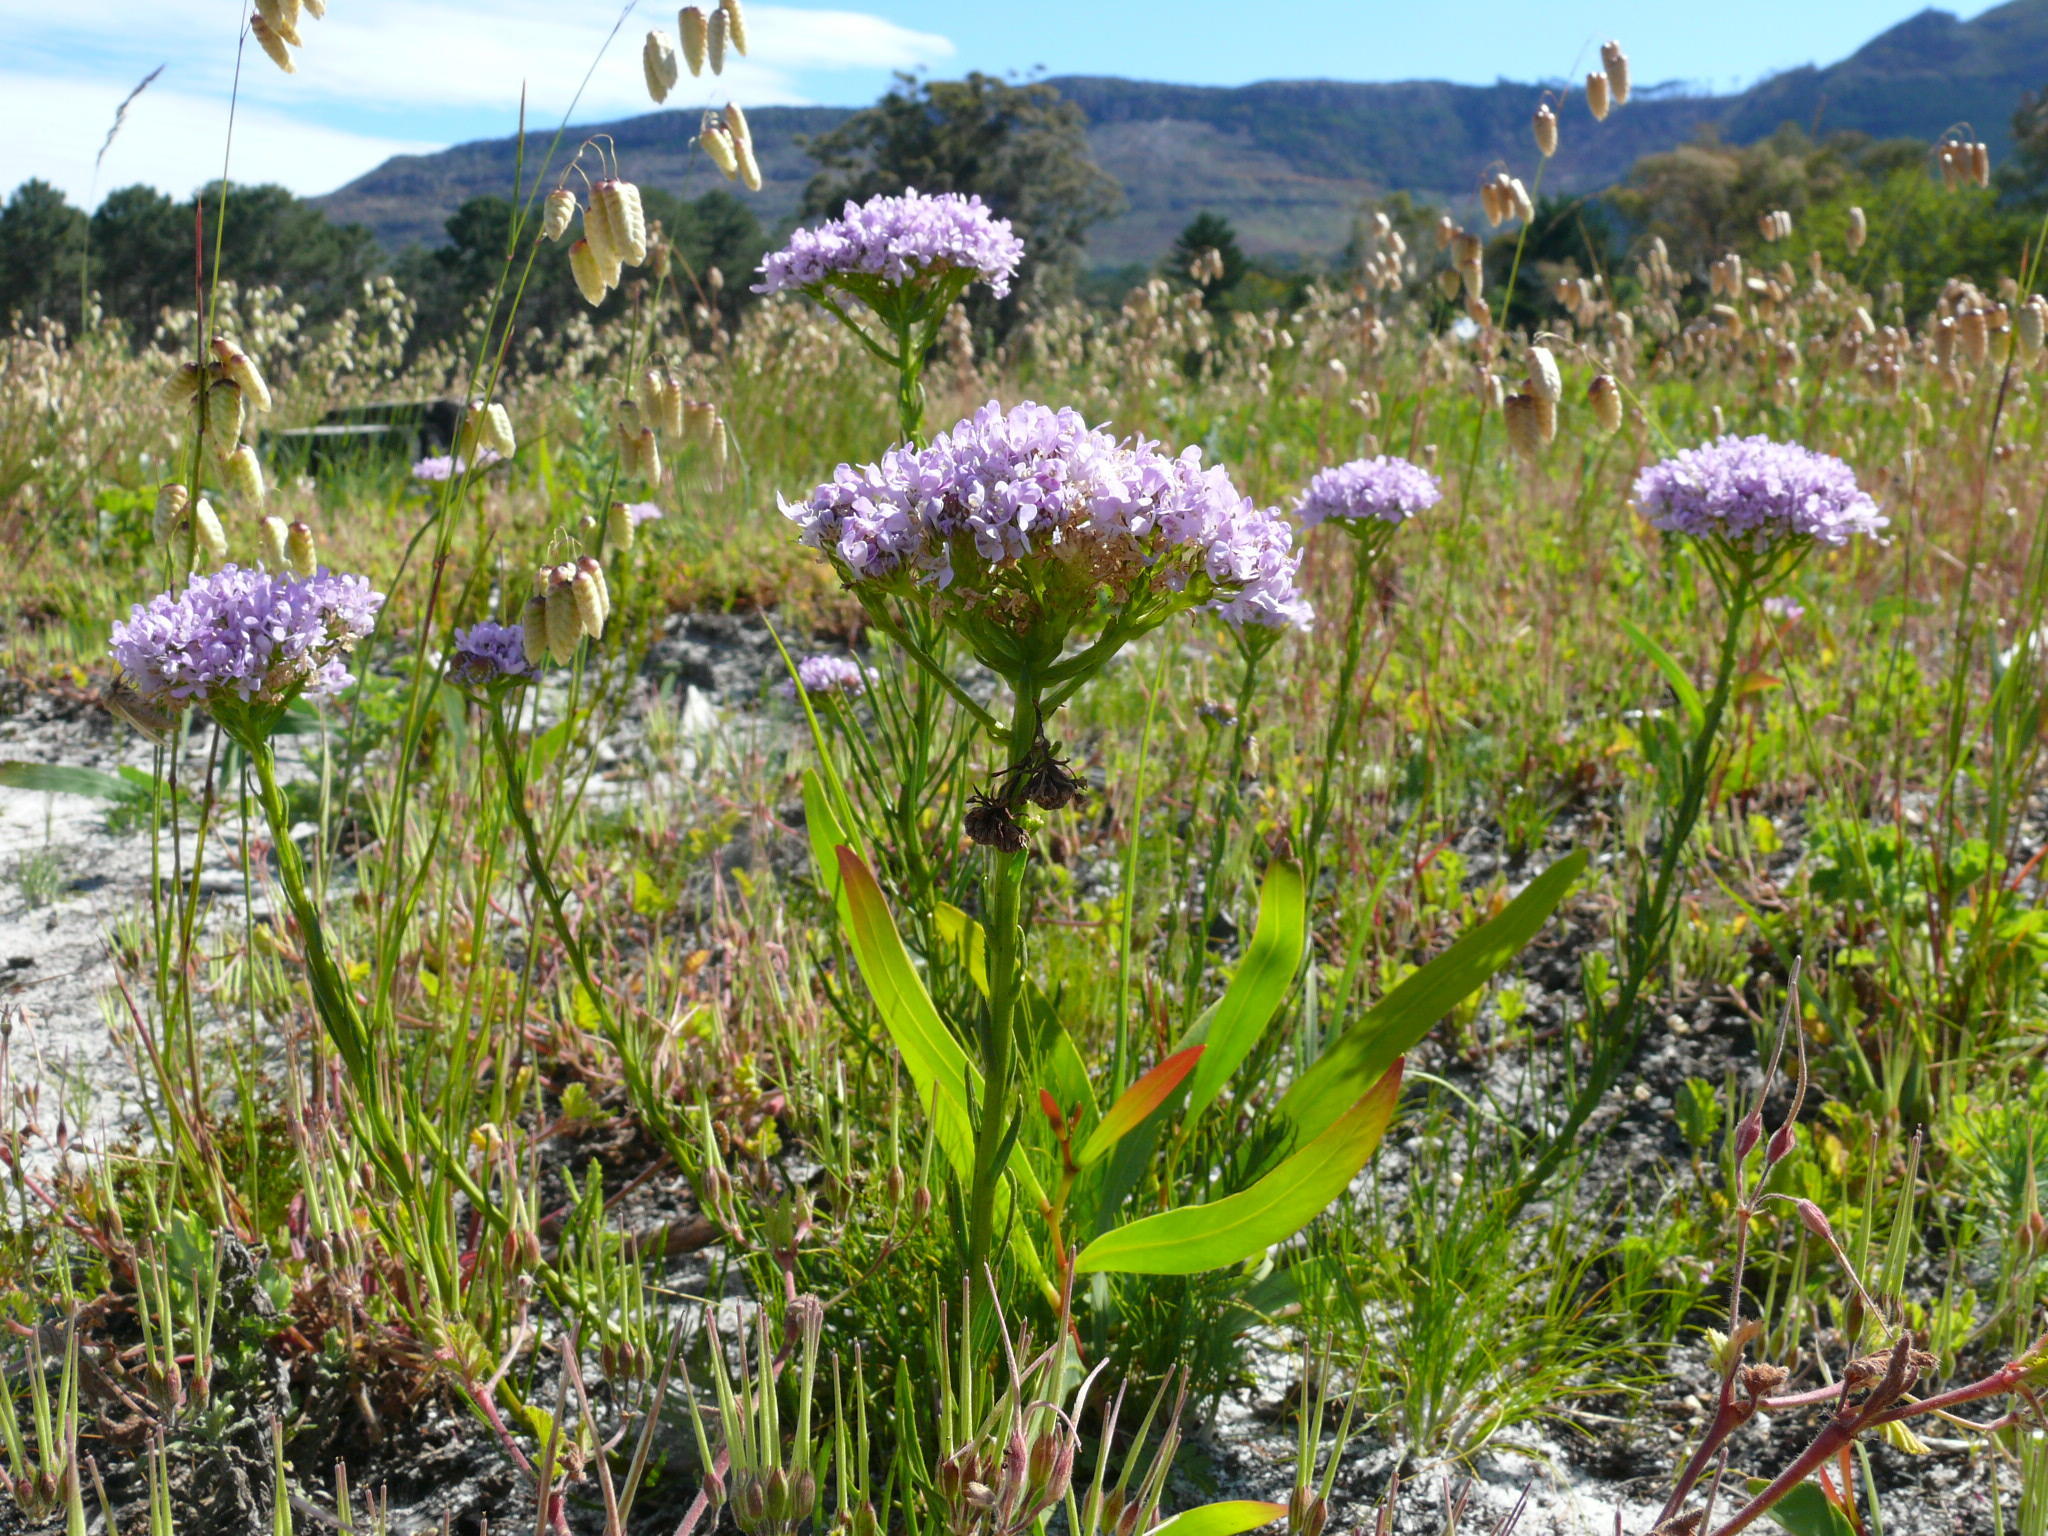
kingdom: Plantae
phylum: Tracheophyta
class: Magnoliopsida
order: Lamiales
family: Scrophulariaceae
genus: Pseudoselago
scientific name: Pseudoselago spuria
